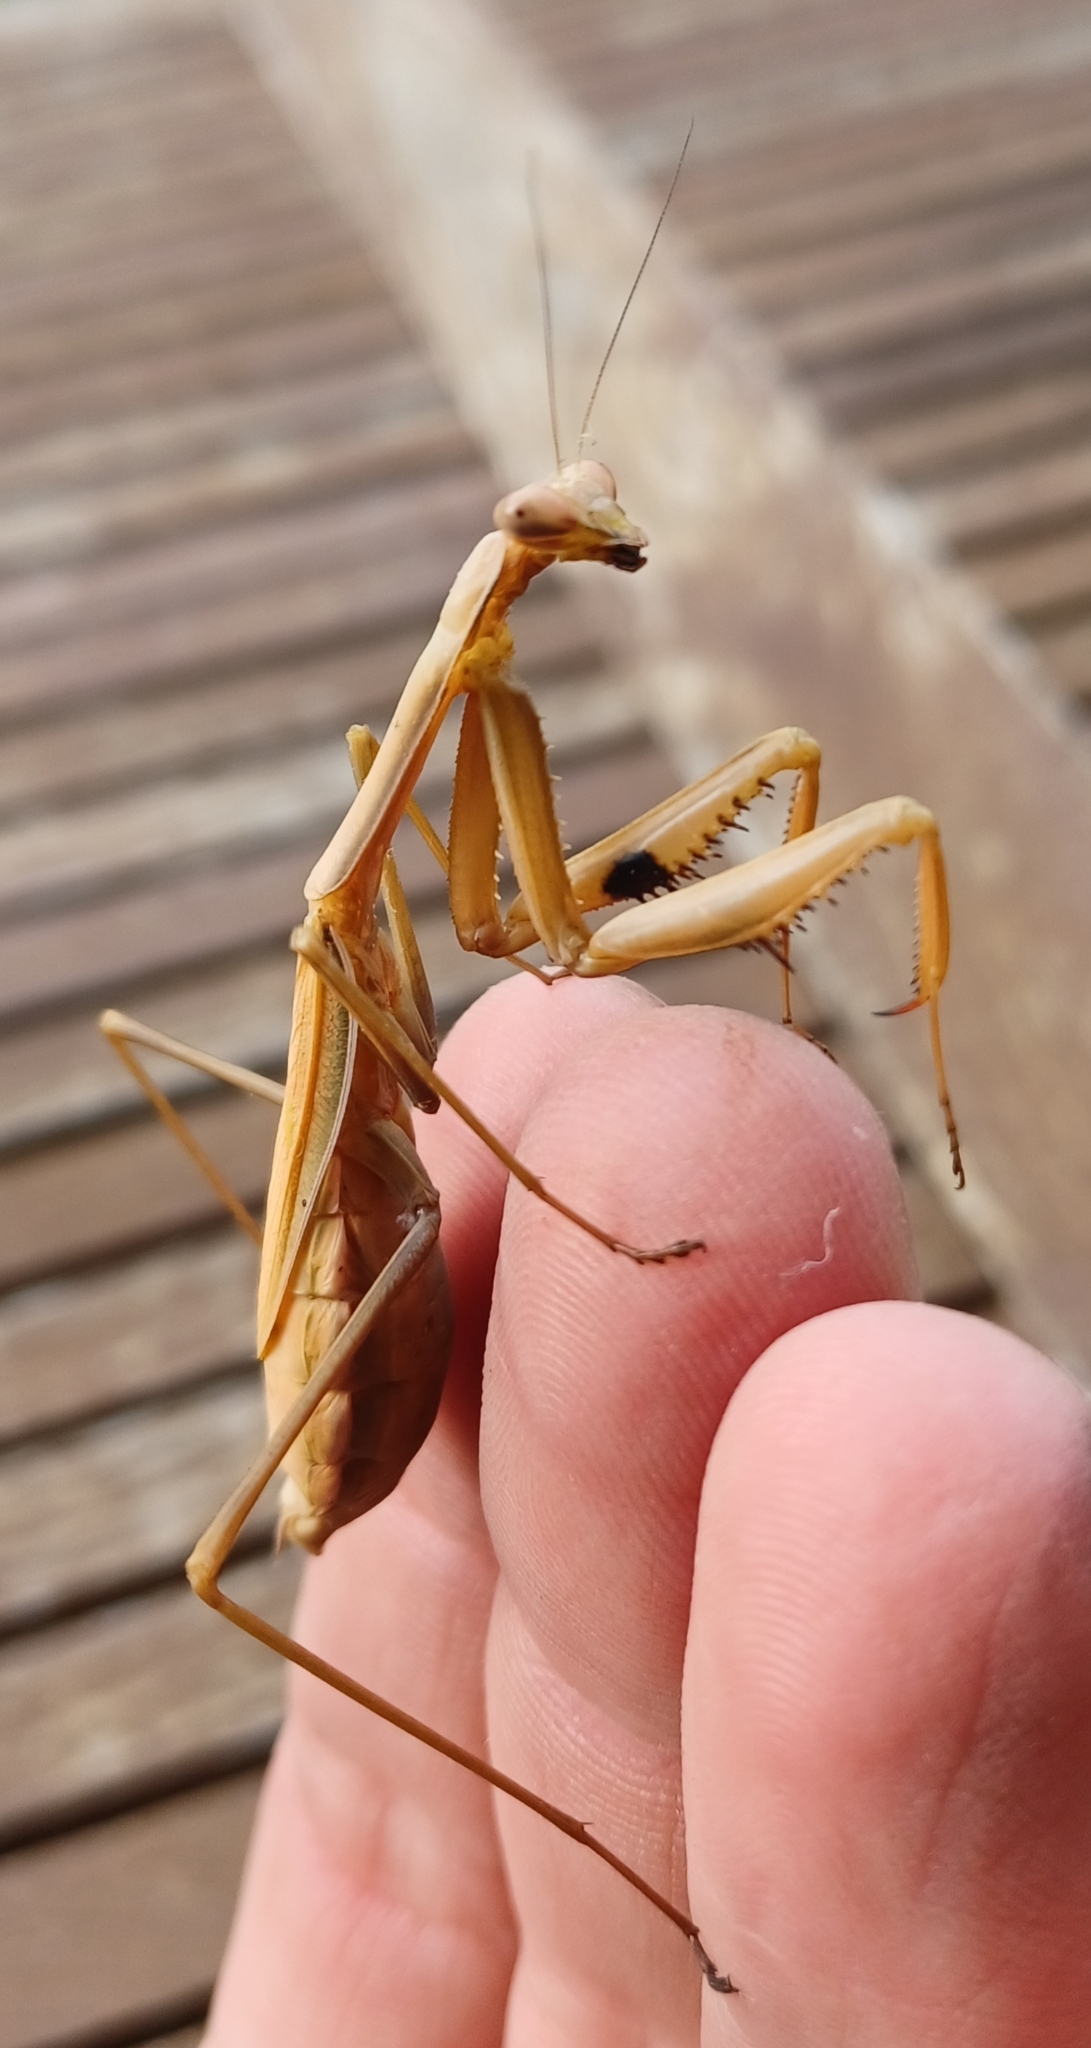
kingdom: Animalia
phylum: Arthropoda
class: Insecta
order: Mantodea
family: Mantidae
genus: Pseudomantis
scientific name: Pseudomantis albofimbriata
